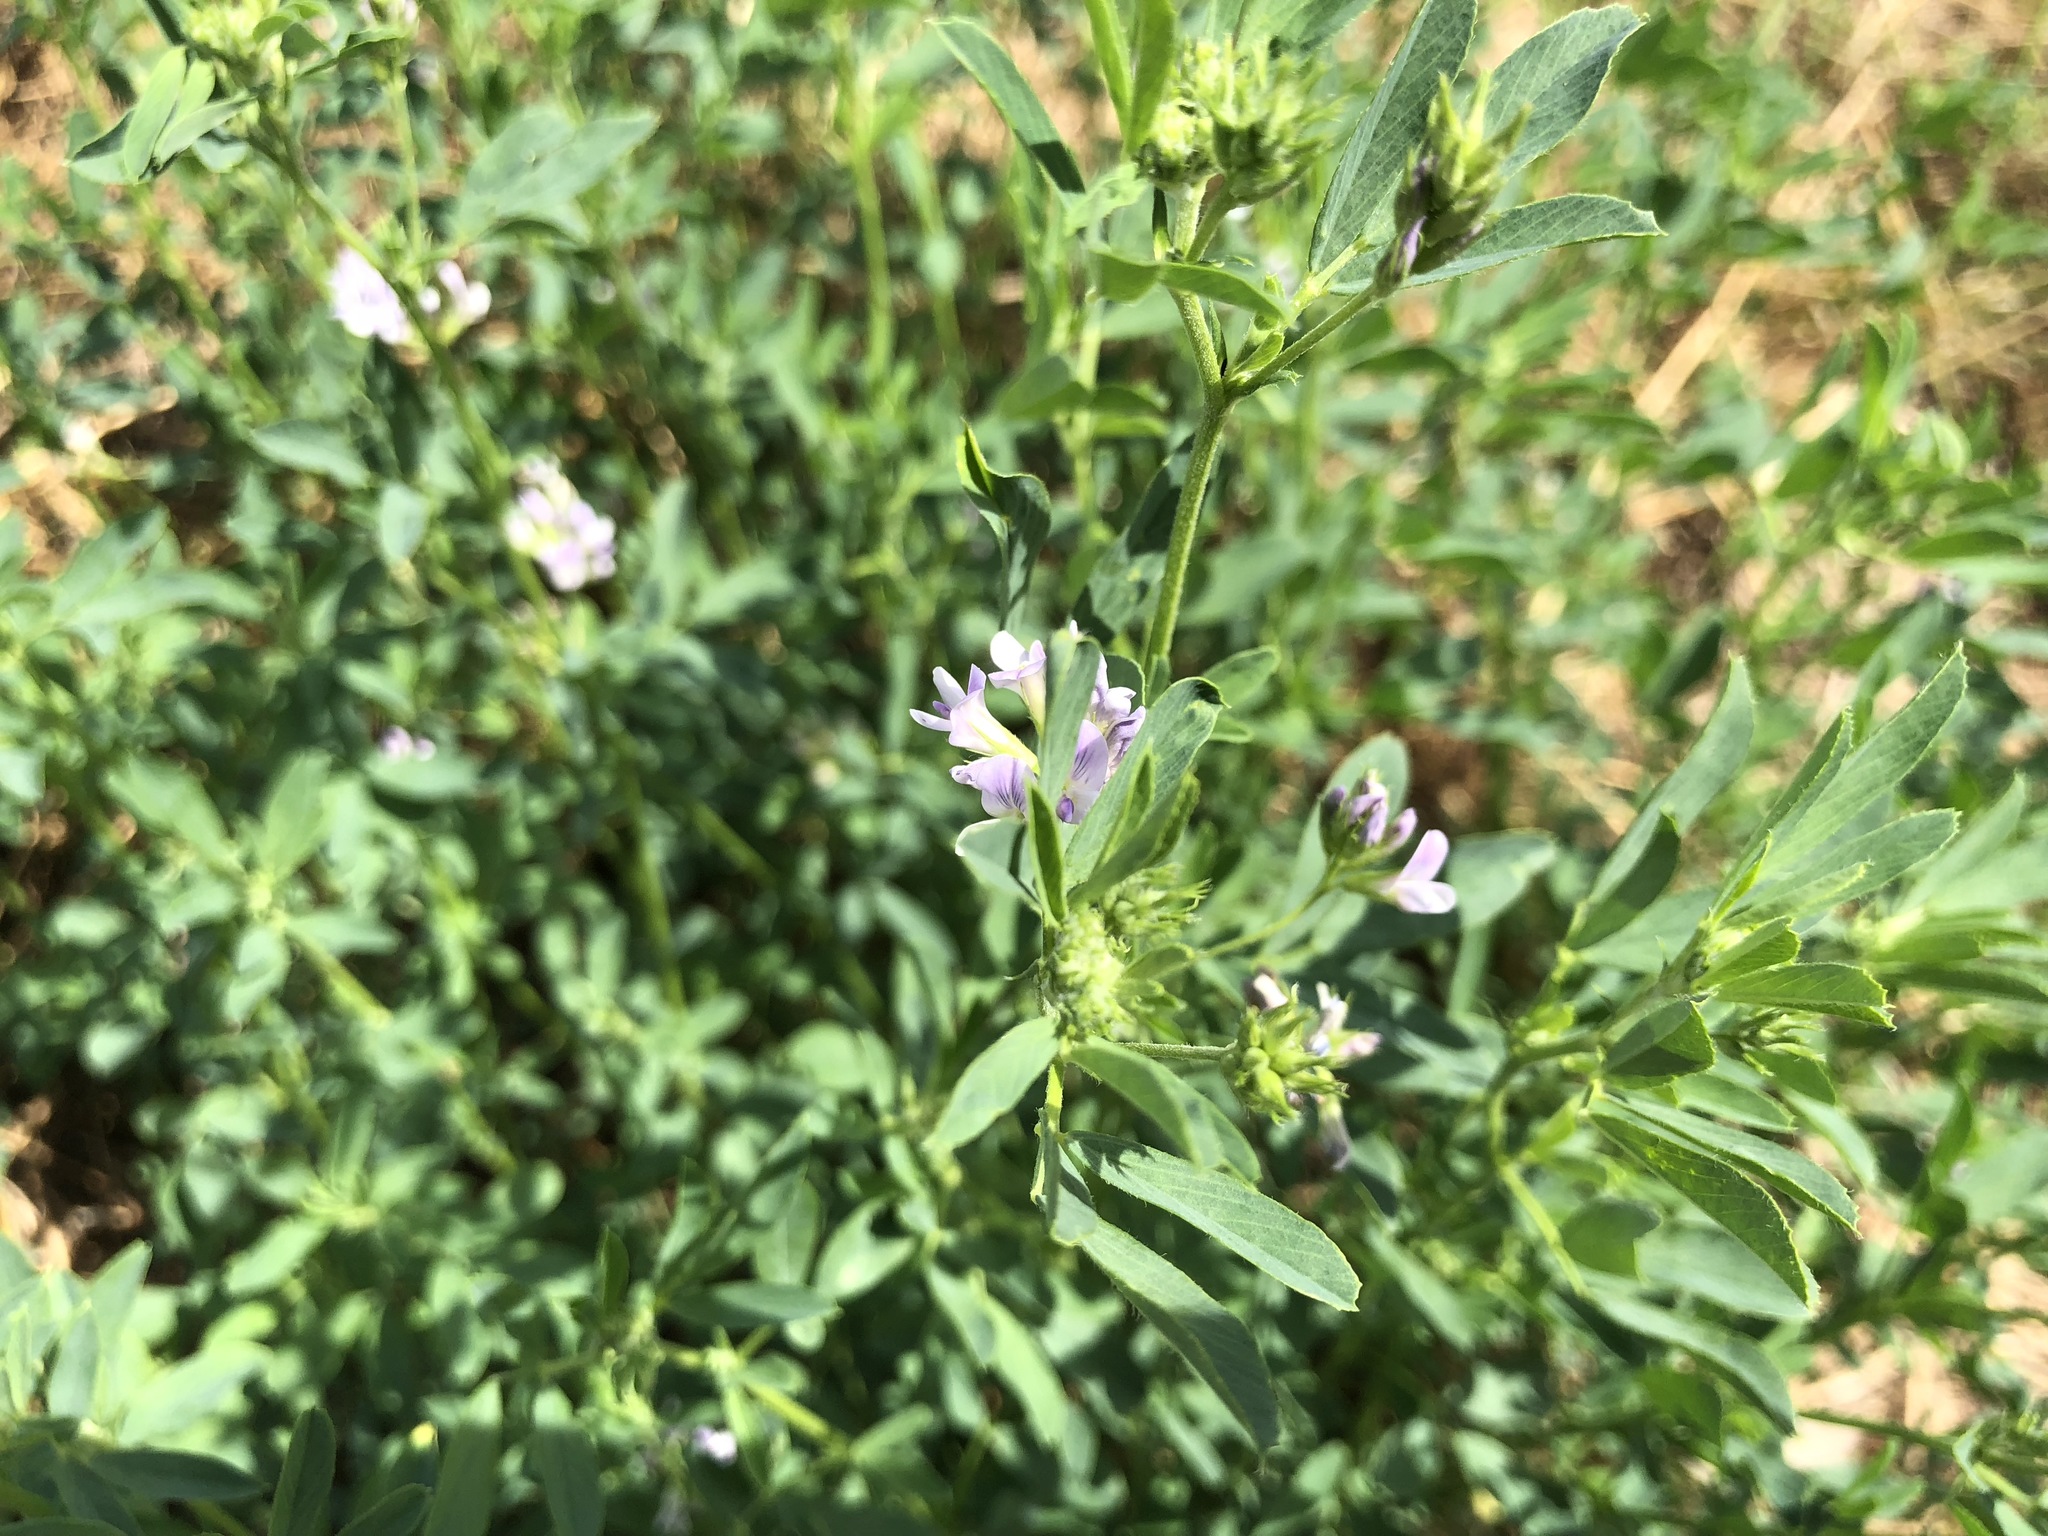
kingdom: Plantae
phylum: Tracheophyta
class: Magnoliopsida
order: Fabales
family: Fabaceae
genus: Medicago
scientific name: Medicago sativa
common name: Alfalfa
